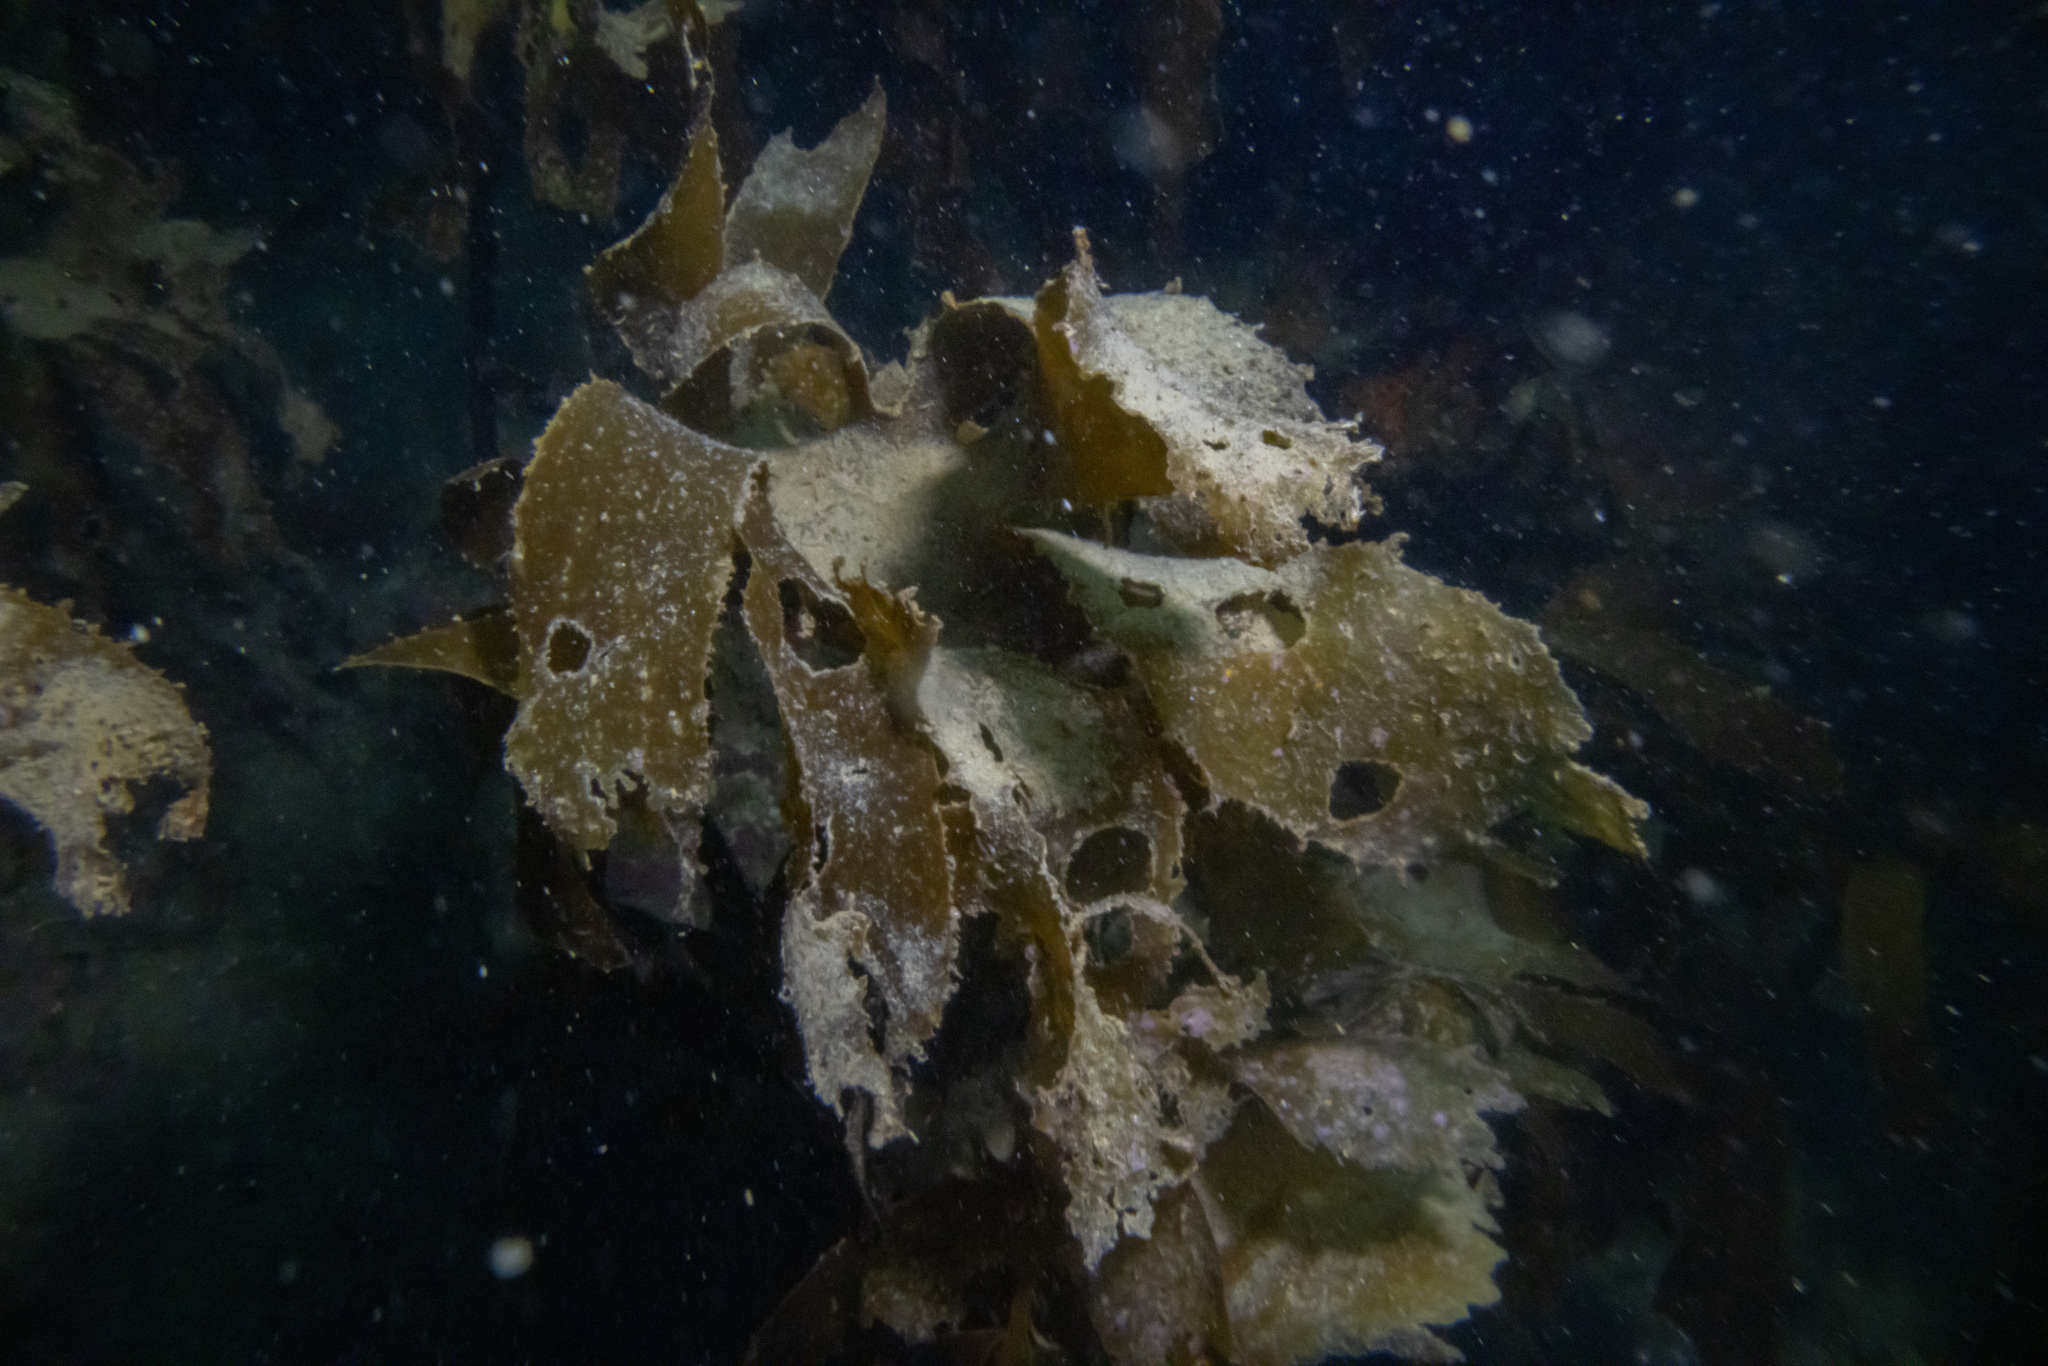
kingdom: Chromista
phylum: Ochrophyta
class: Phaeophyceae
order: Laminariales
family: Lessoniaceae
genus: Ecklonia
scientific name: Ecklonia radiata
